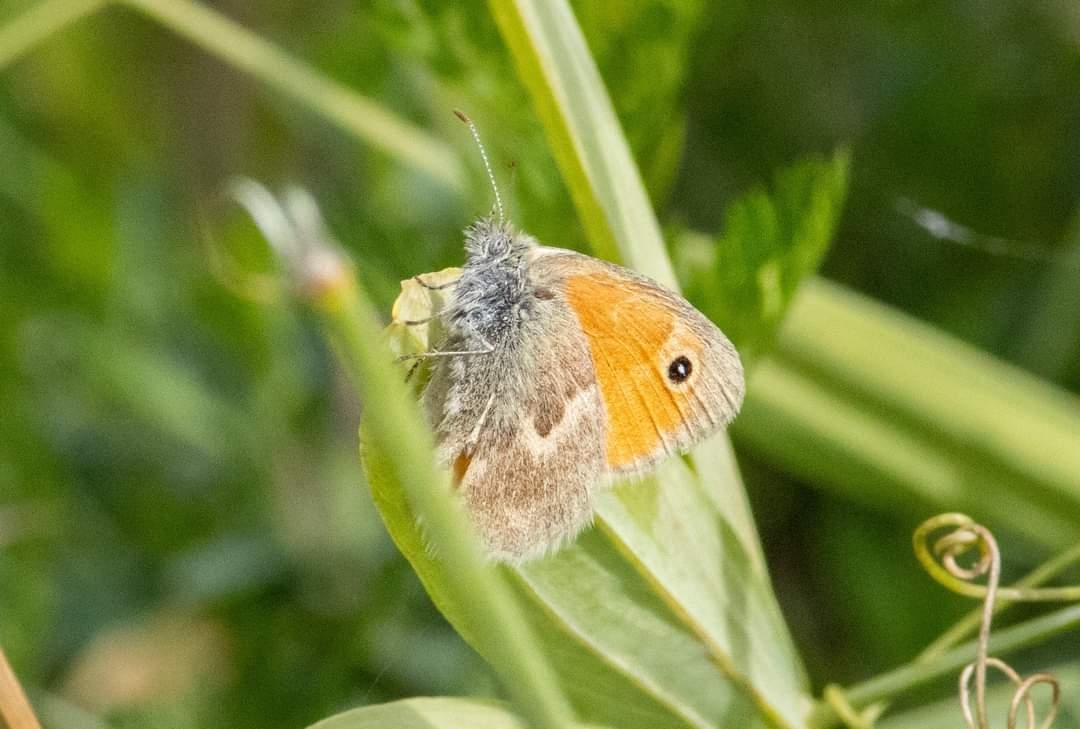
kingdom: Animalia
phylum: Arthropoda
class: Insecta
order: Lepidoptera
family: Nymphalidae
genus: Coenonympha
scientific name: Coenonympha pamphilus
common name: Small heath
